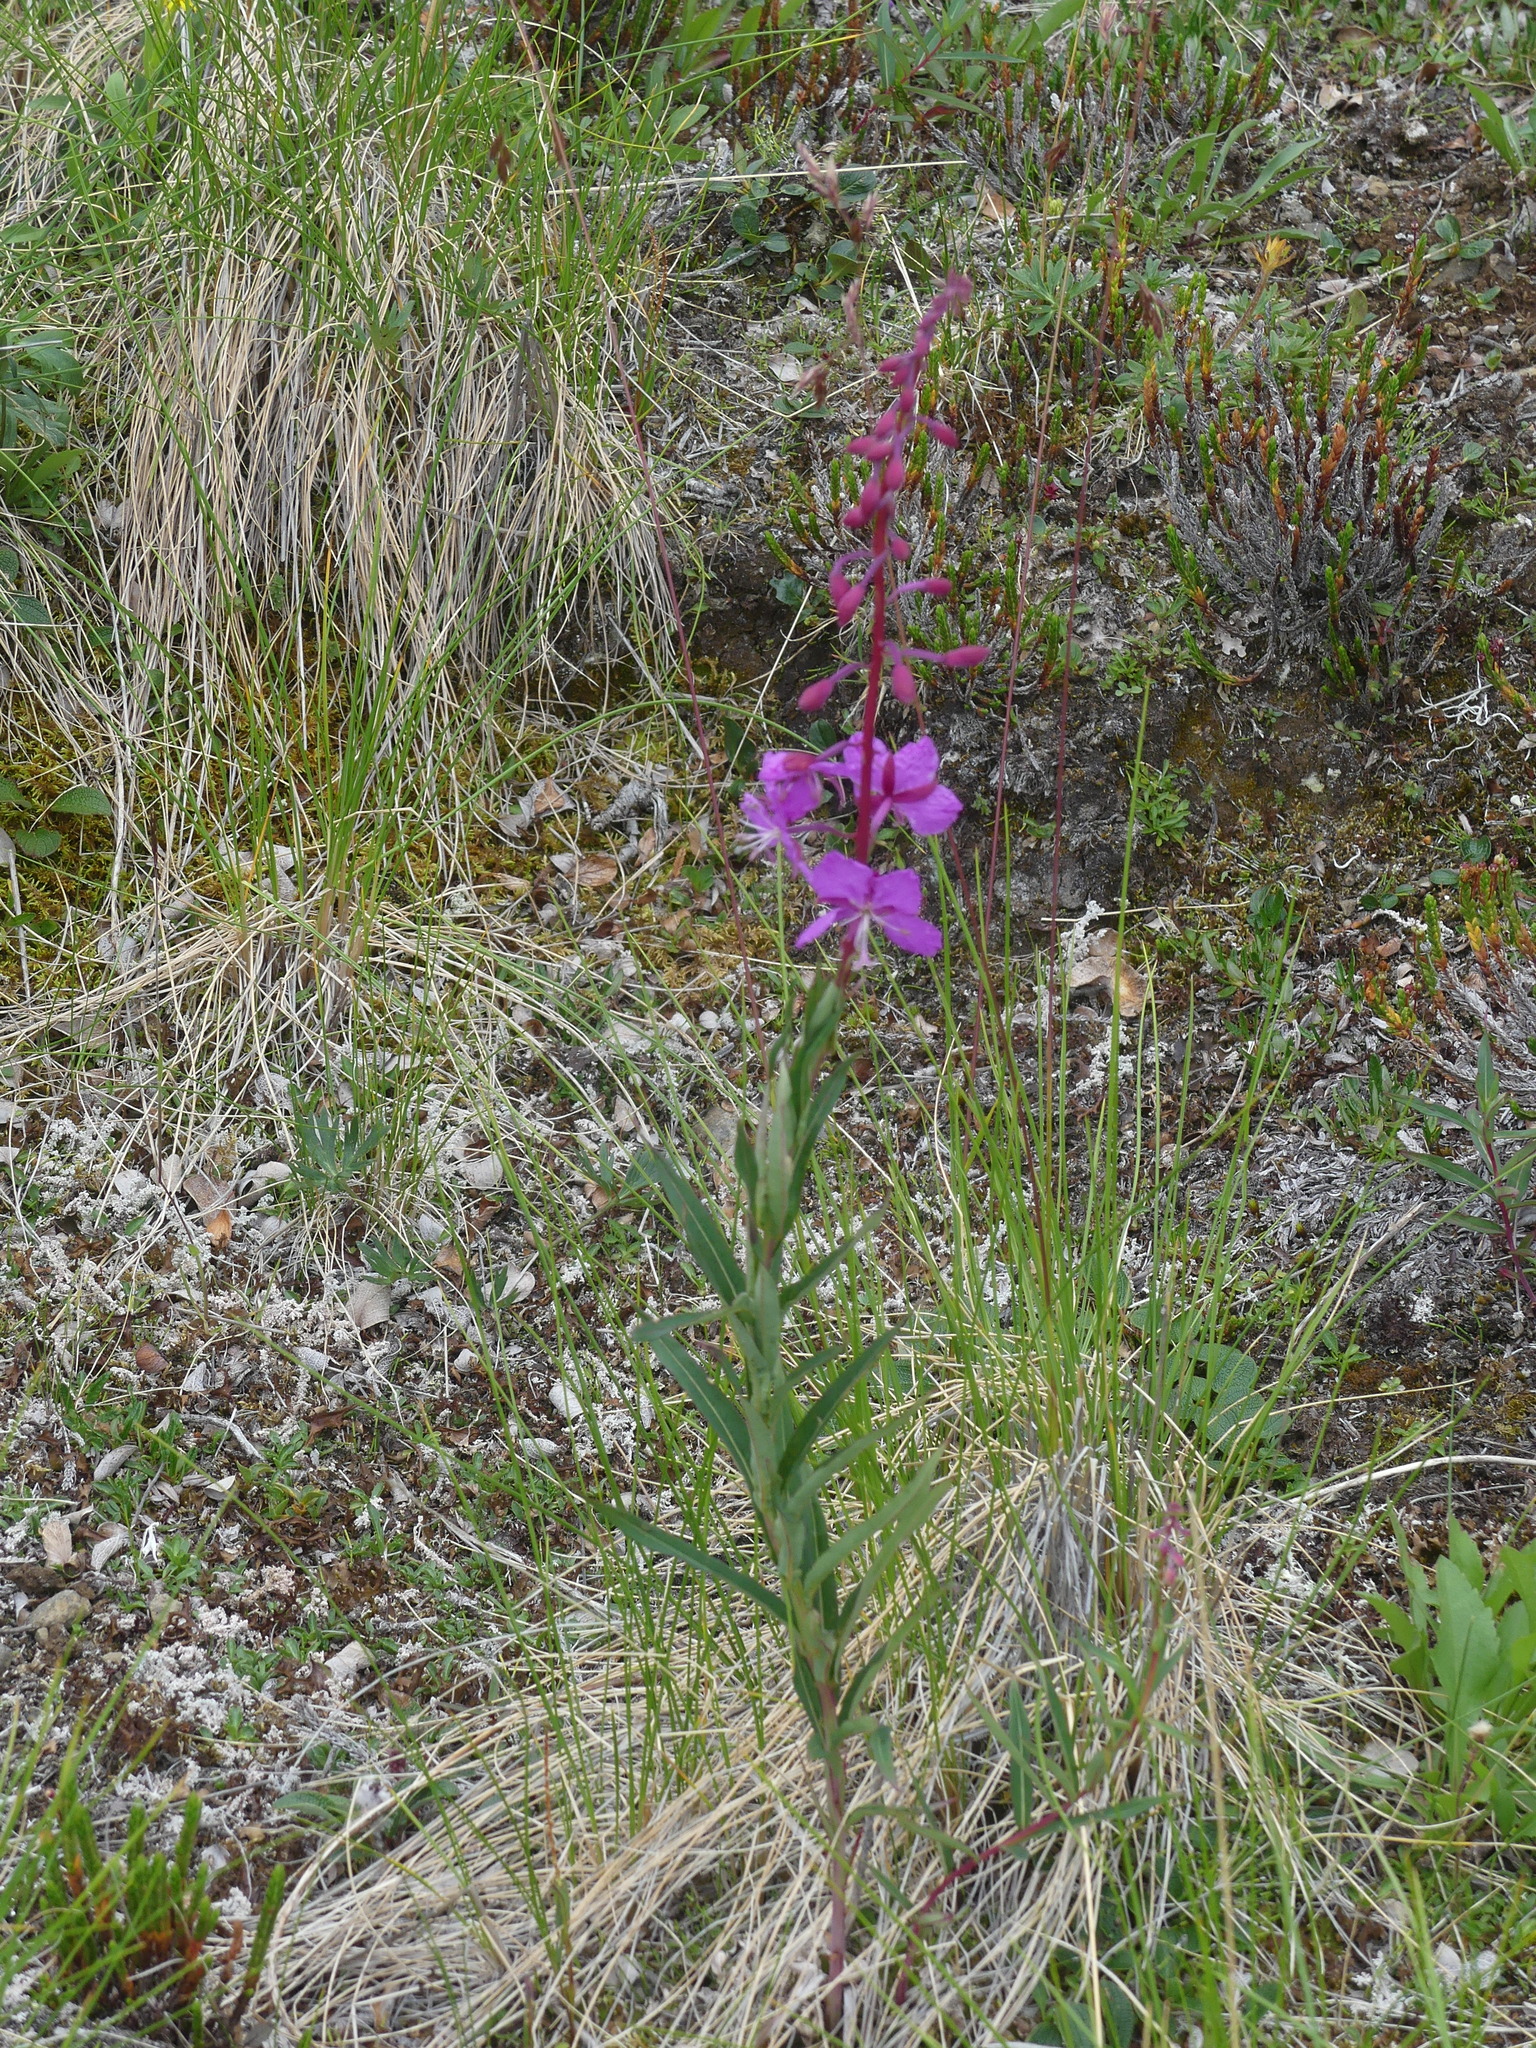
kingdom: Plantae
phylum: Tracheophyta
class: Magnoliopsida
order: Myrtales
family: Onagraceae
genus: Chamaenerion
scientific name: Chamaenerion angustifolium
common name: Fireweed
